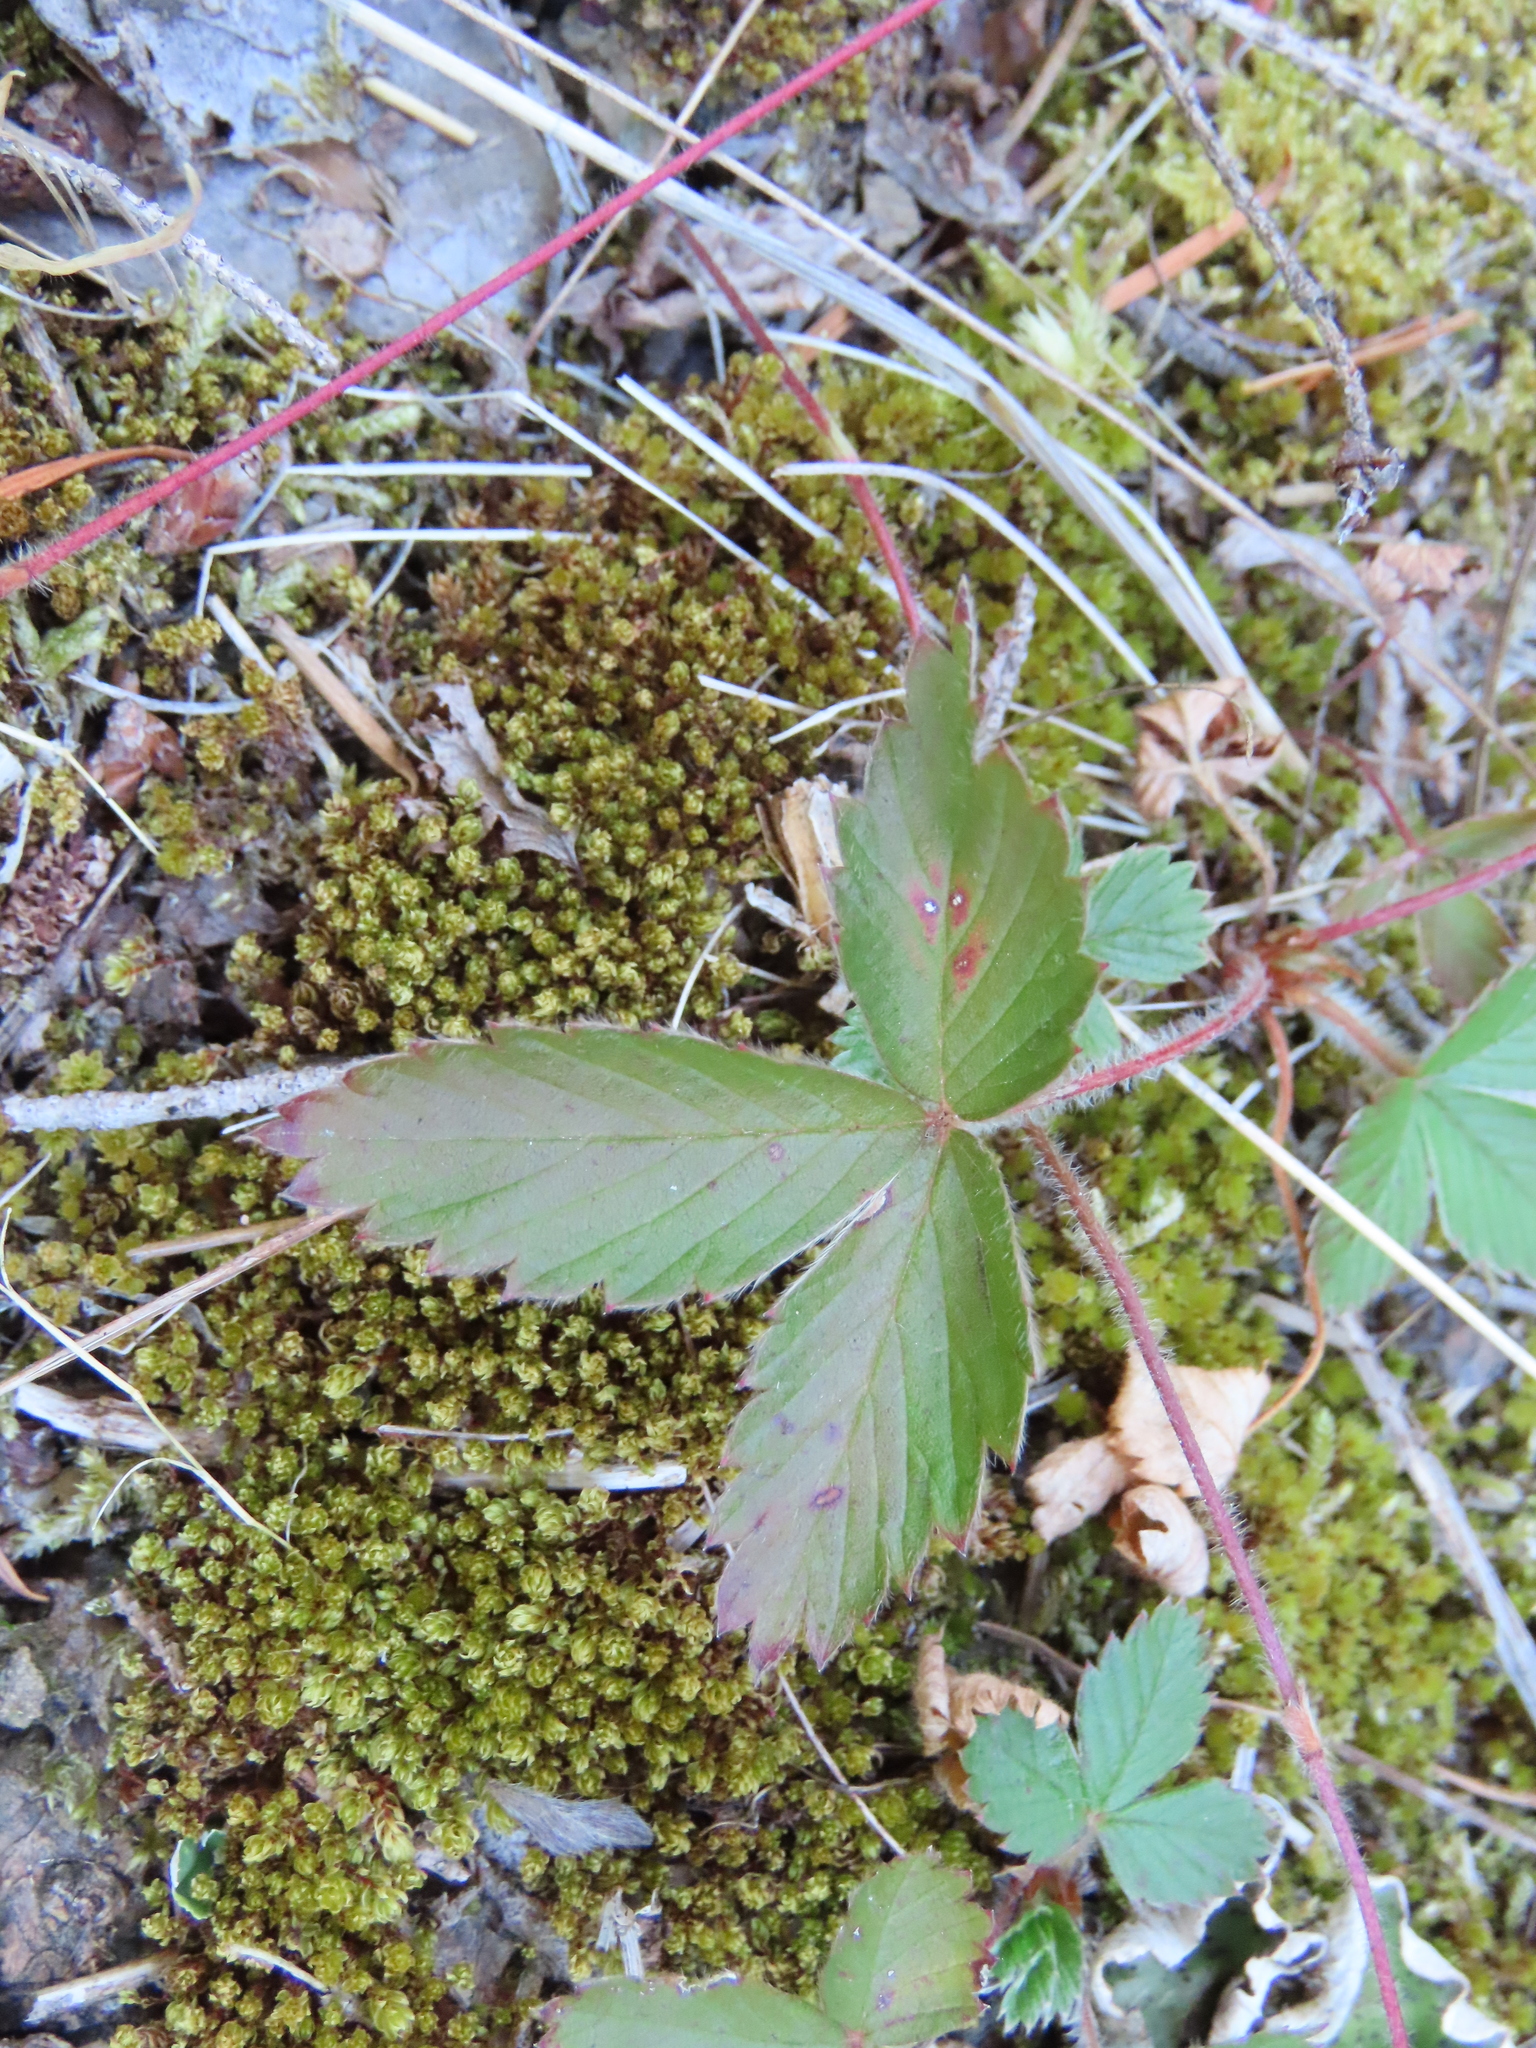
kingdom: Plantae
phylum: Tracheophyta
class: Magnoliopsida
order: Rosales
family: Rosaceae
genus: Fragaria
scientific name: Fragaria virginiana
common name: Thickleaved wild strawberry
